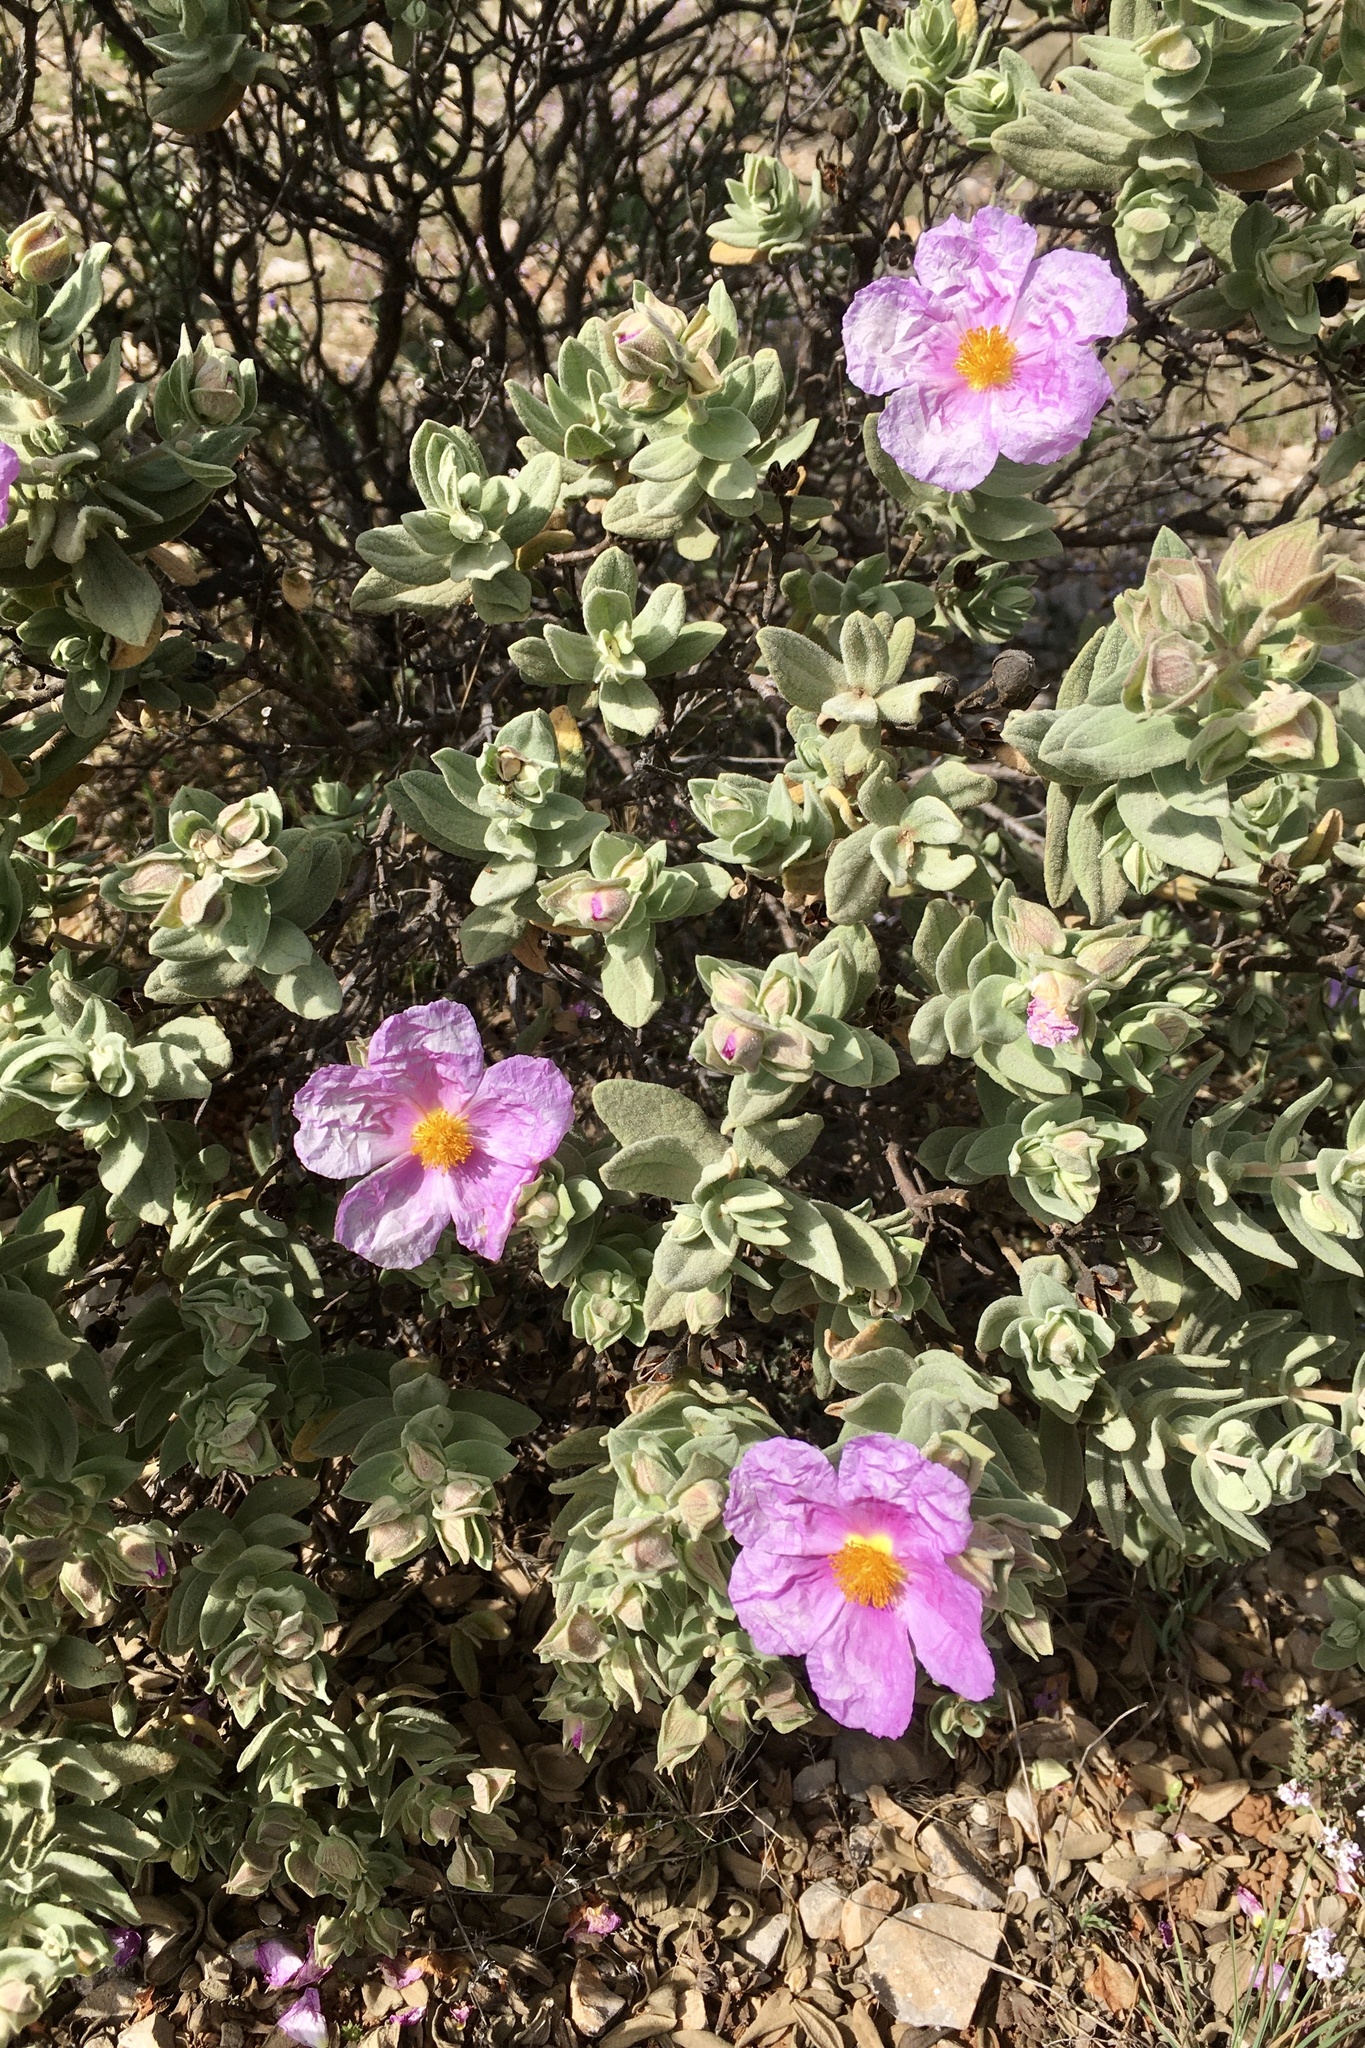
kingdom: Plantae
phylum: Tracheophyta
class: Magnoliopsida
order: Malvales
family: Cistaceae
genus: Cistus
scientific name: Cistus albidus
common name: White-leaf rock-rose
